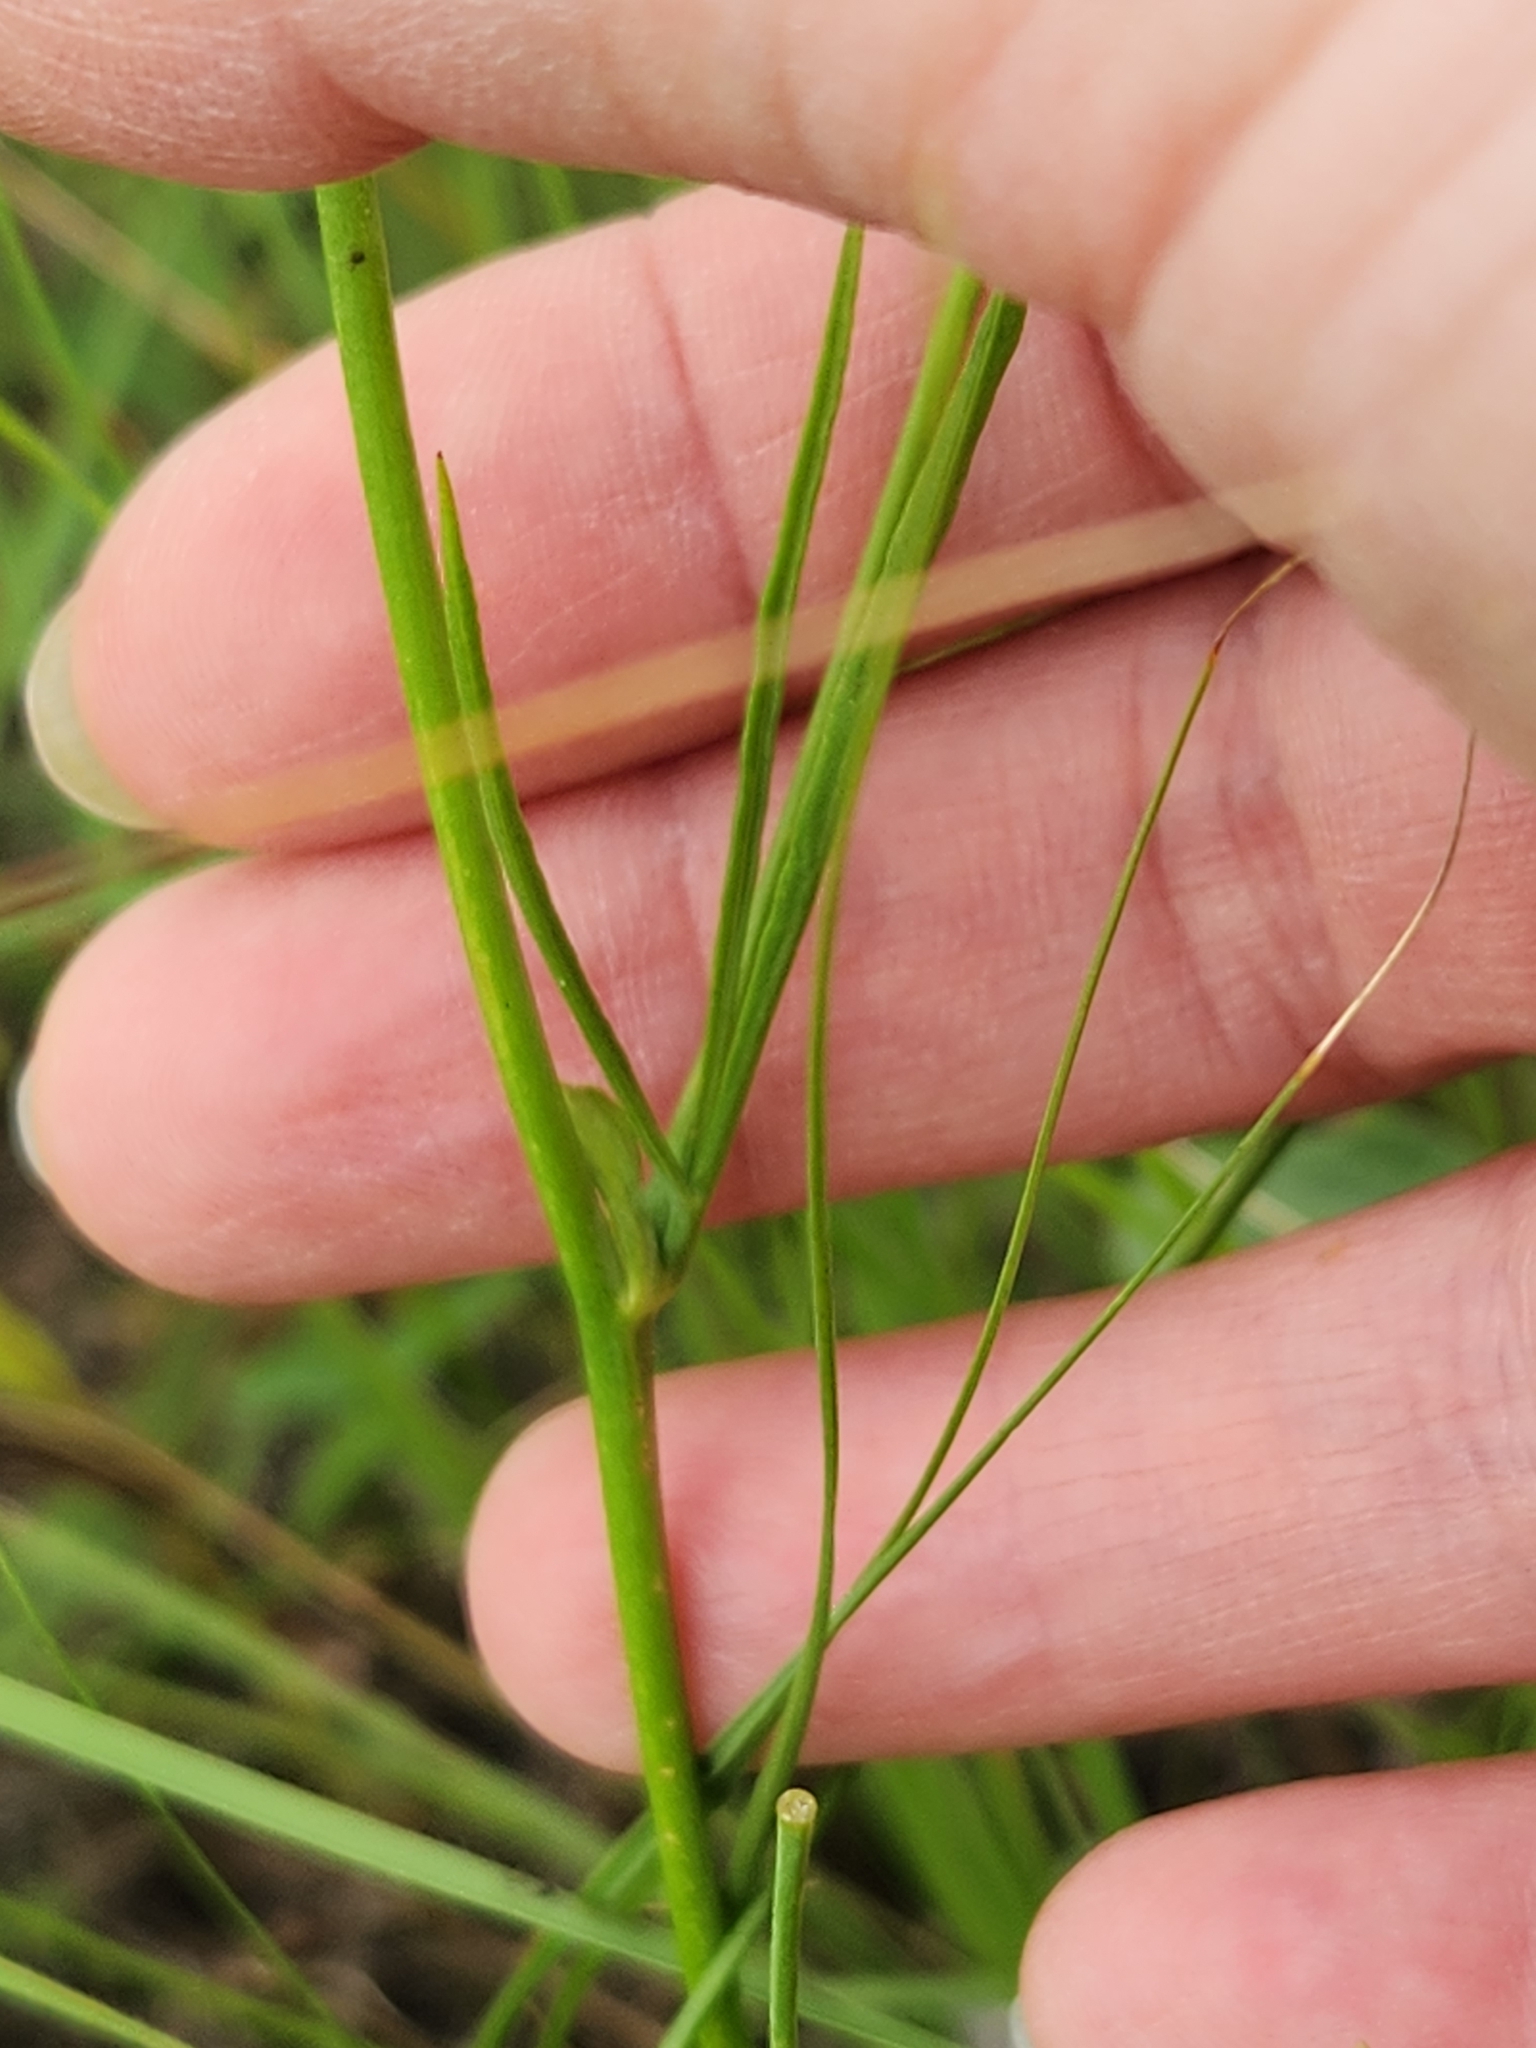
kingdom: Plantae
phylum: Tracheophyta
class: Magnoliopsida
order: Malvales
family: Malvaceae
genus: Callirhoe
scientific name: Callirhoe pedata
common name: Finger poppy-mallow
